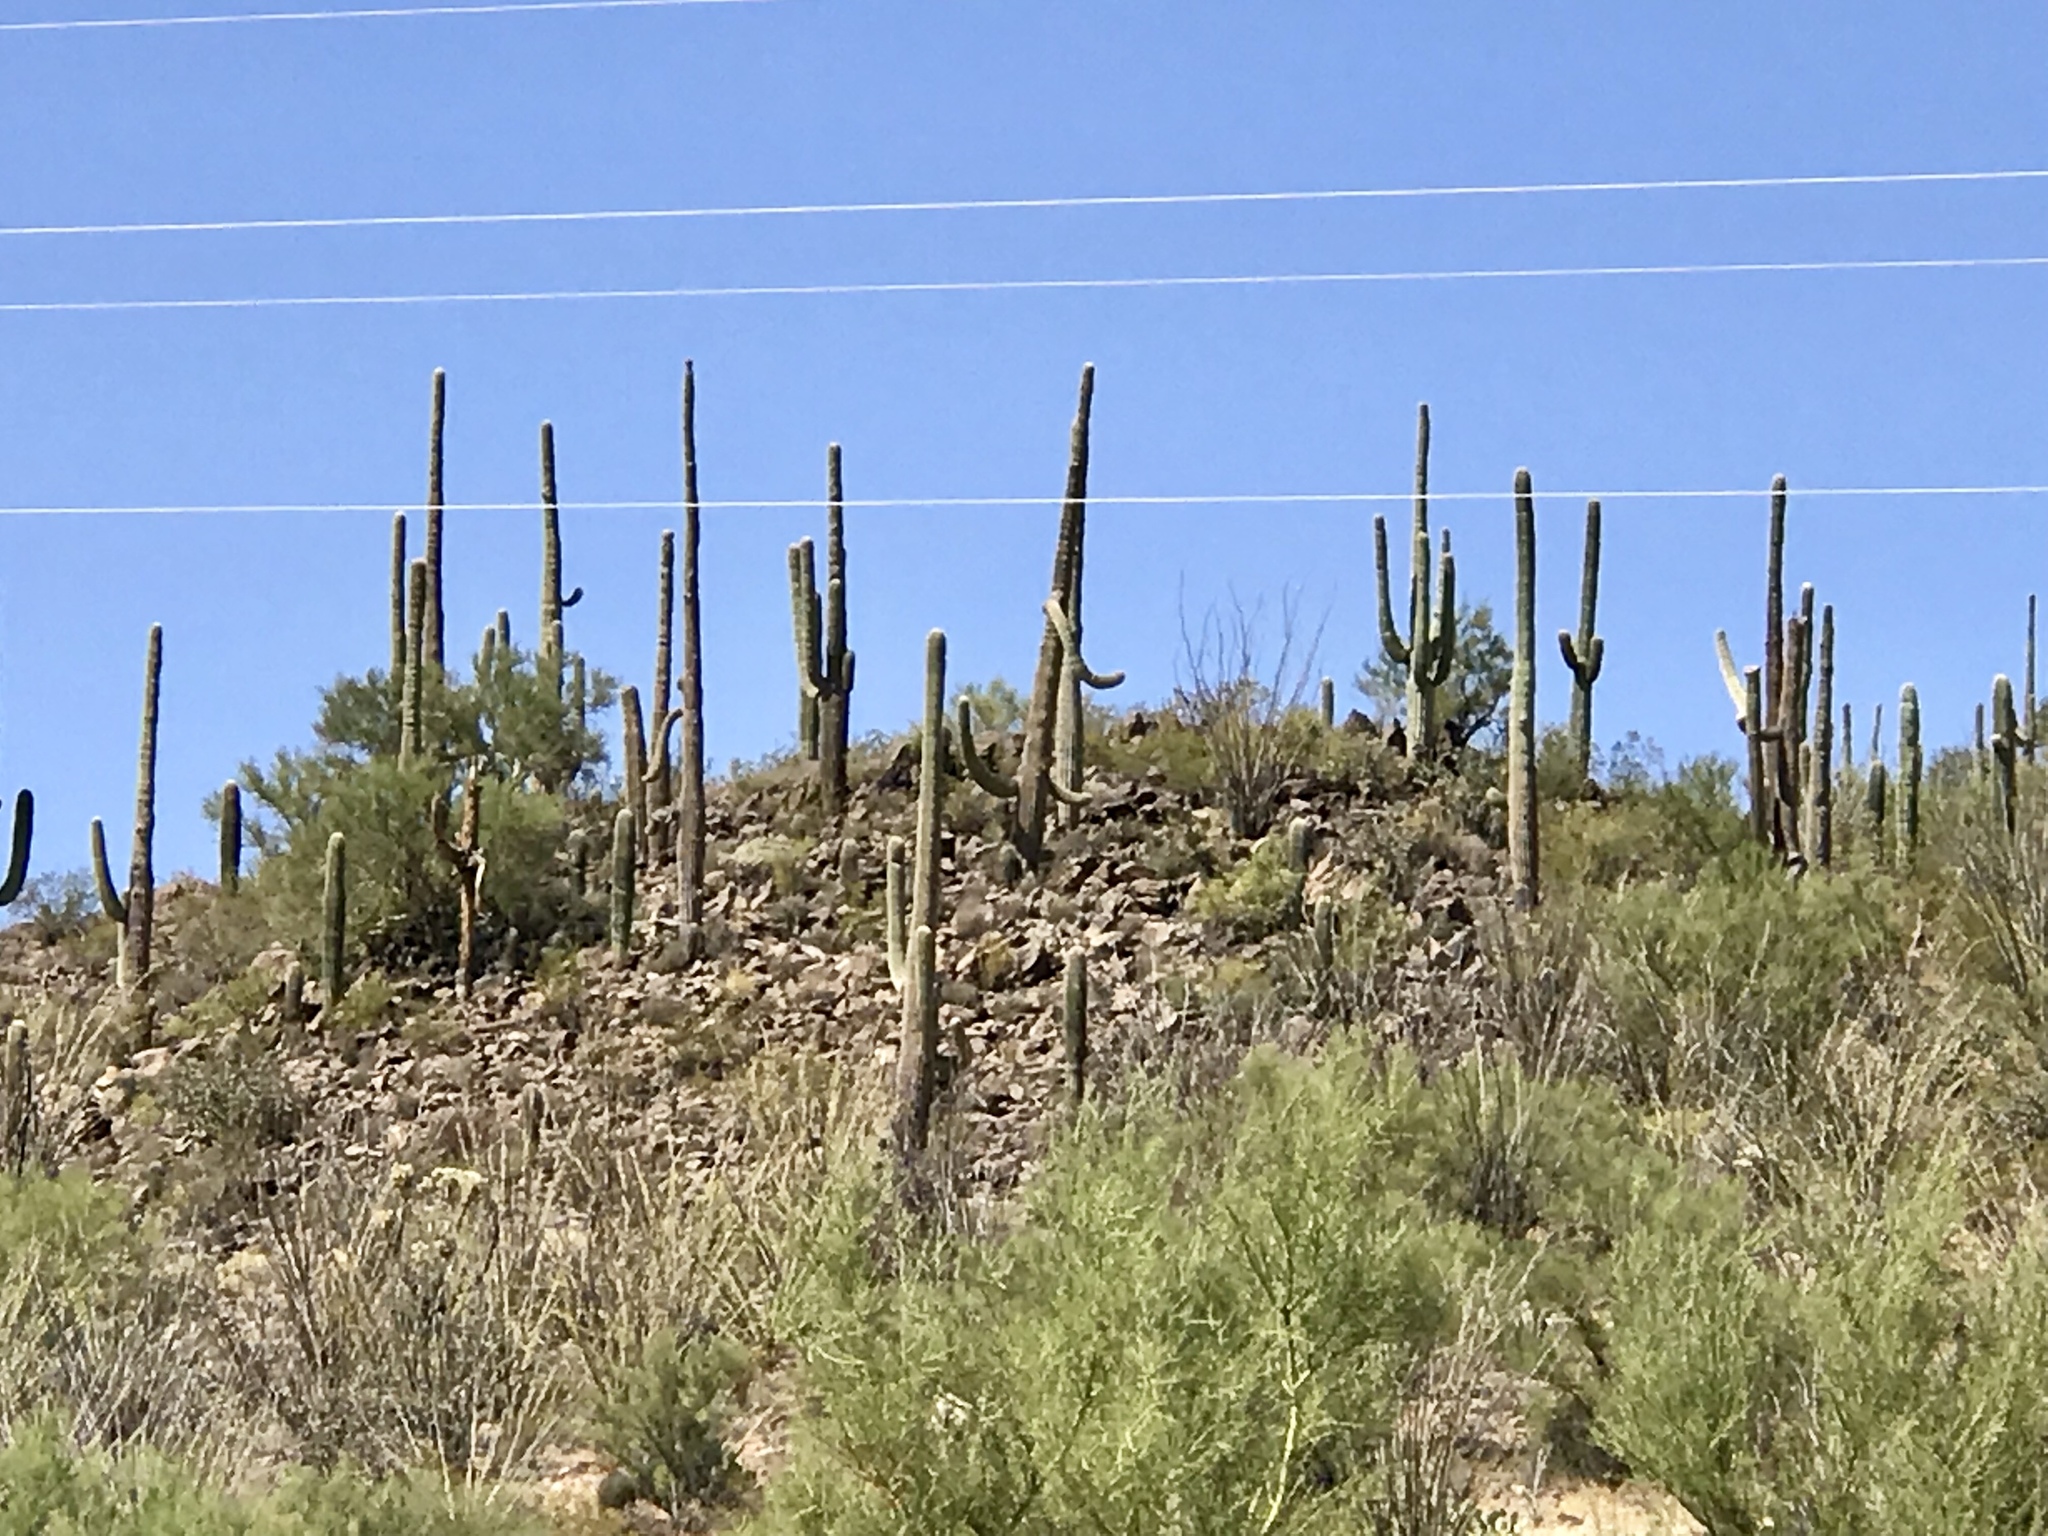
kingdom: Plantae
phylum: Tracheophyta
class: Magnoliopsida
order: Caryophyllales
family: Cactaceae
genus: Carnegiea
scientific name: Carnegiea gigantea
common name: Saguaro
